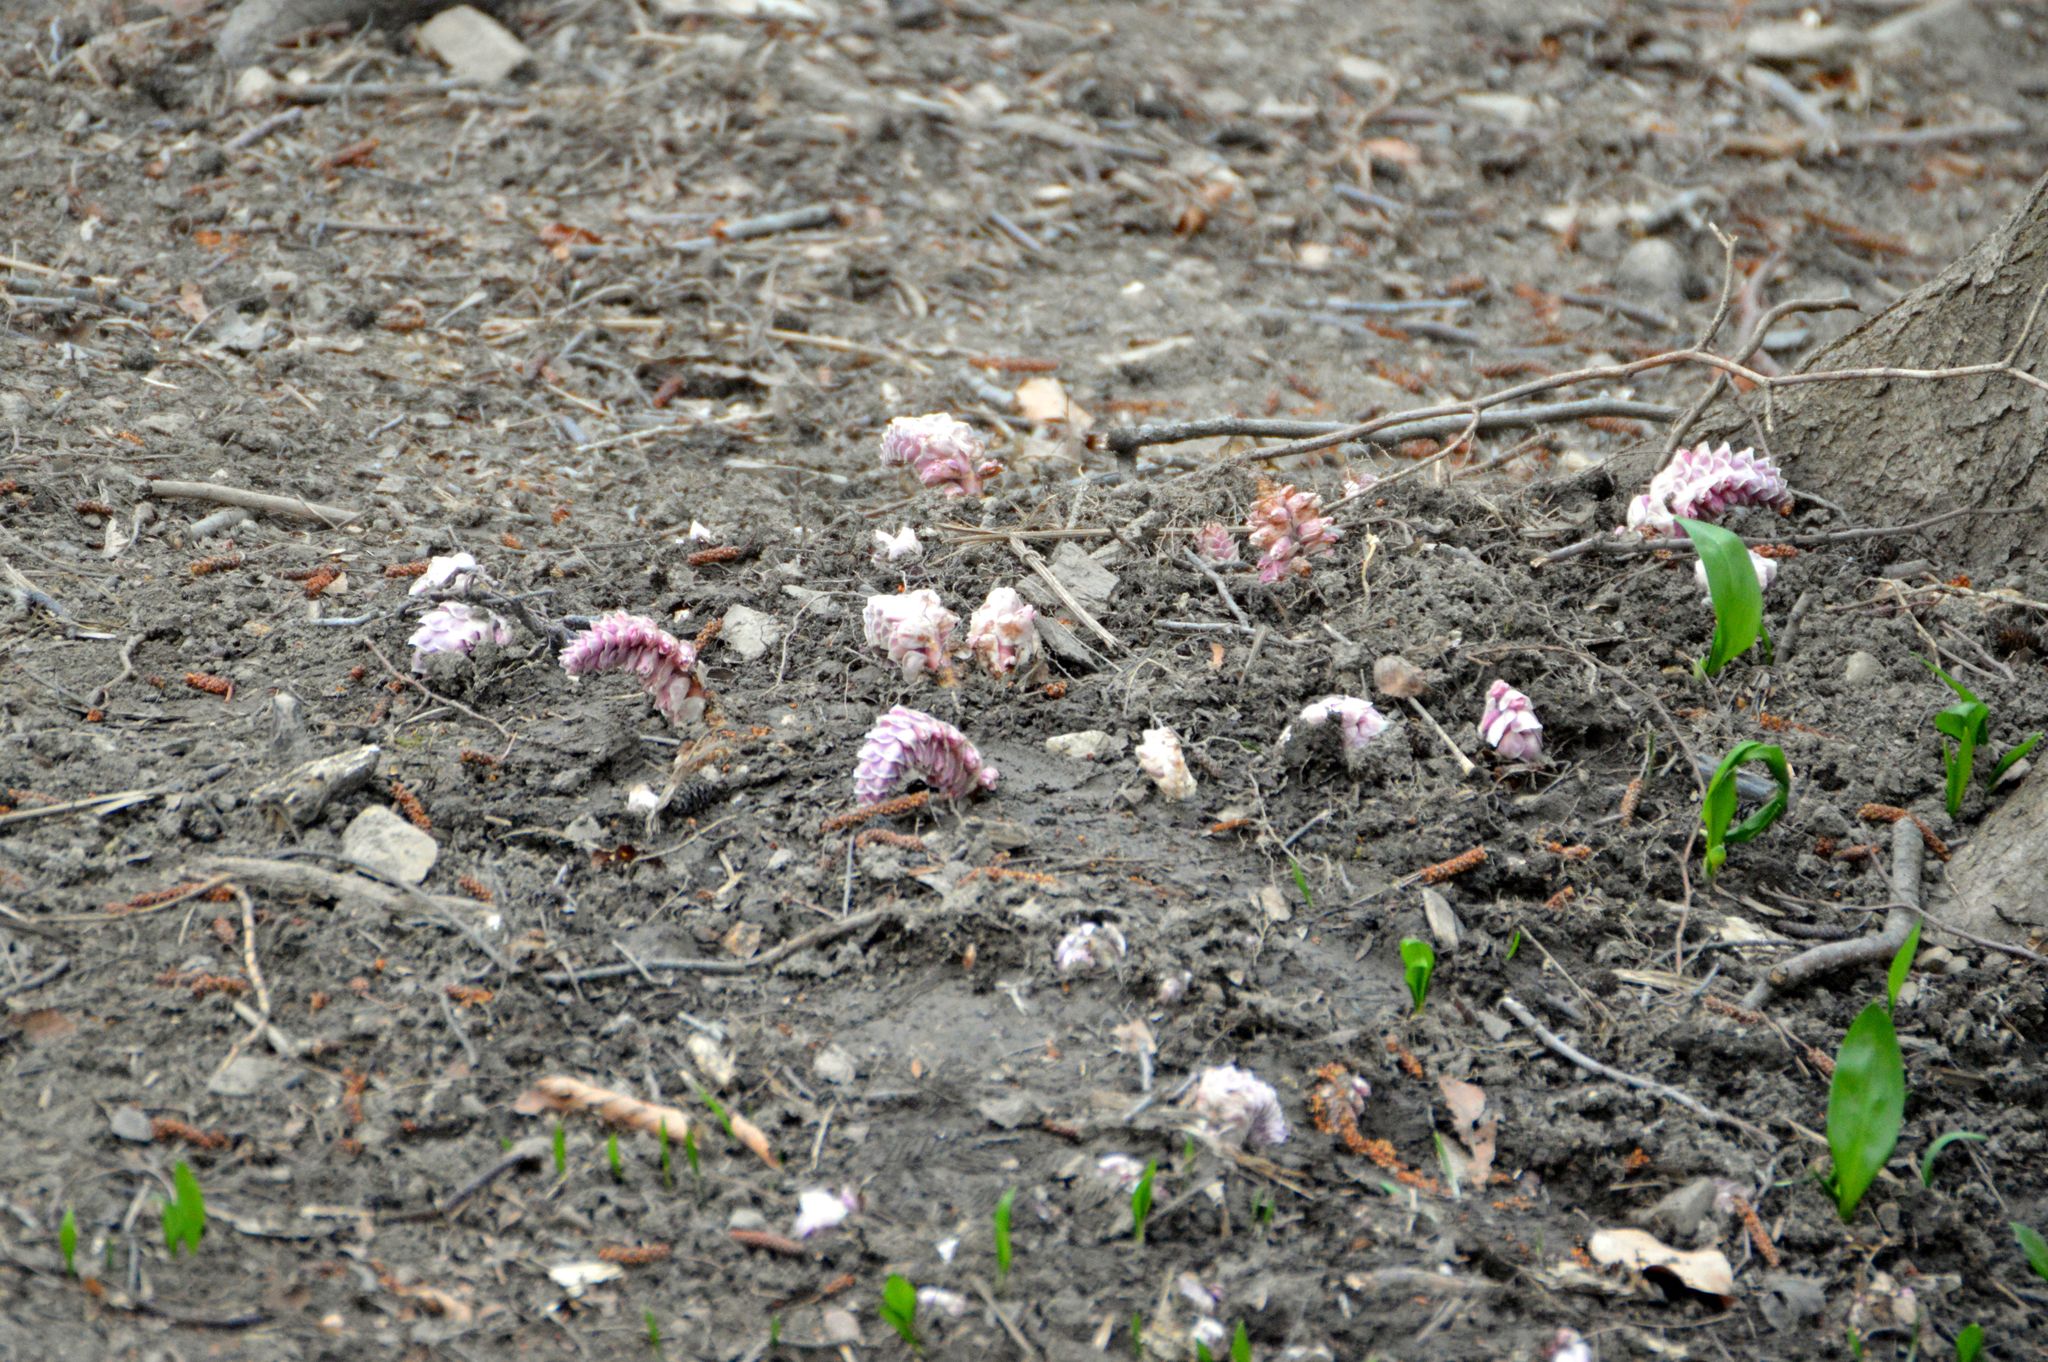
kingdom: Plantae
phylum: Tracheophyta
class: Magnoliopsida
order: Lamiales
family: Orobanchaceae
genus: Lathraea
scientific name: Lathraea squamaria
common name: Toothwort
